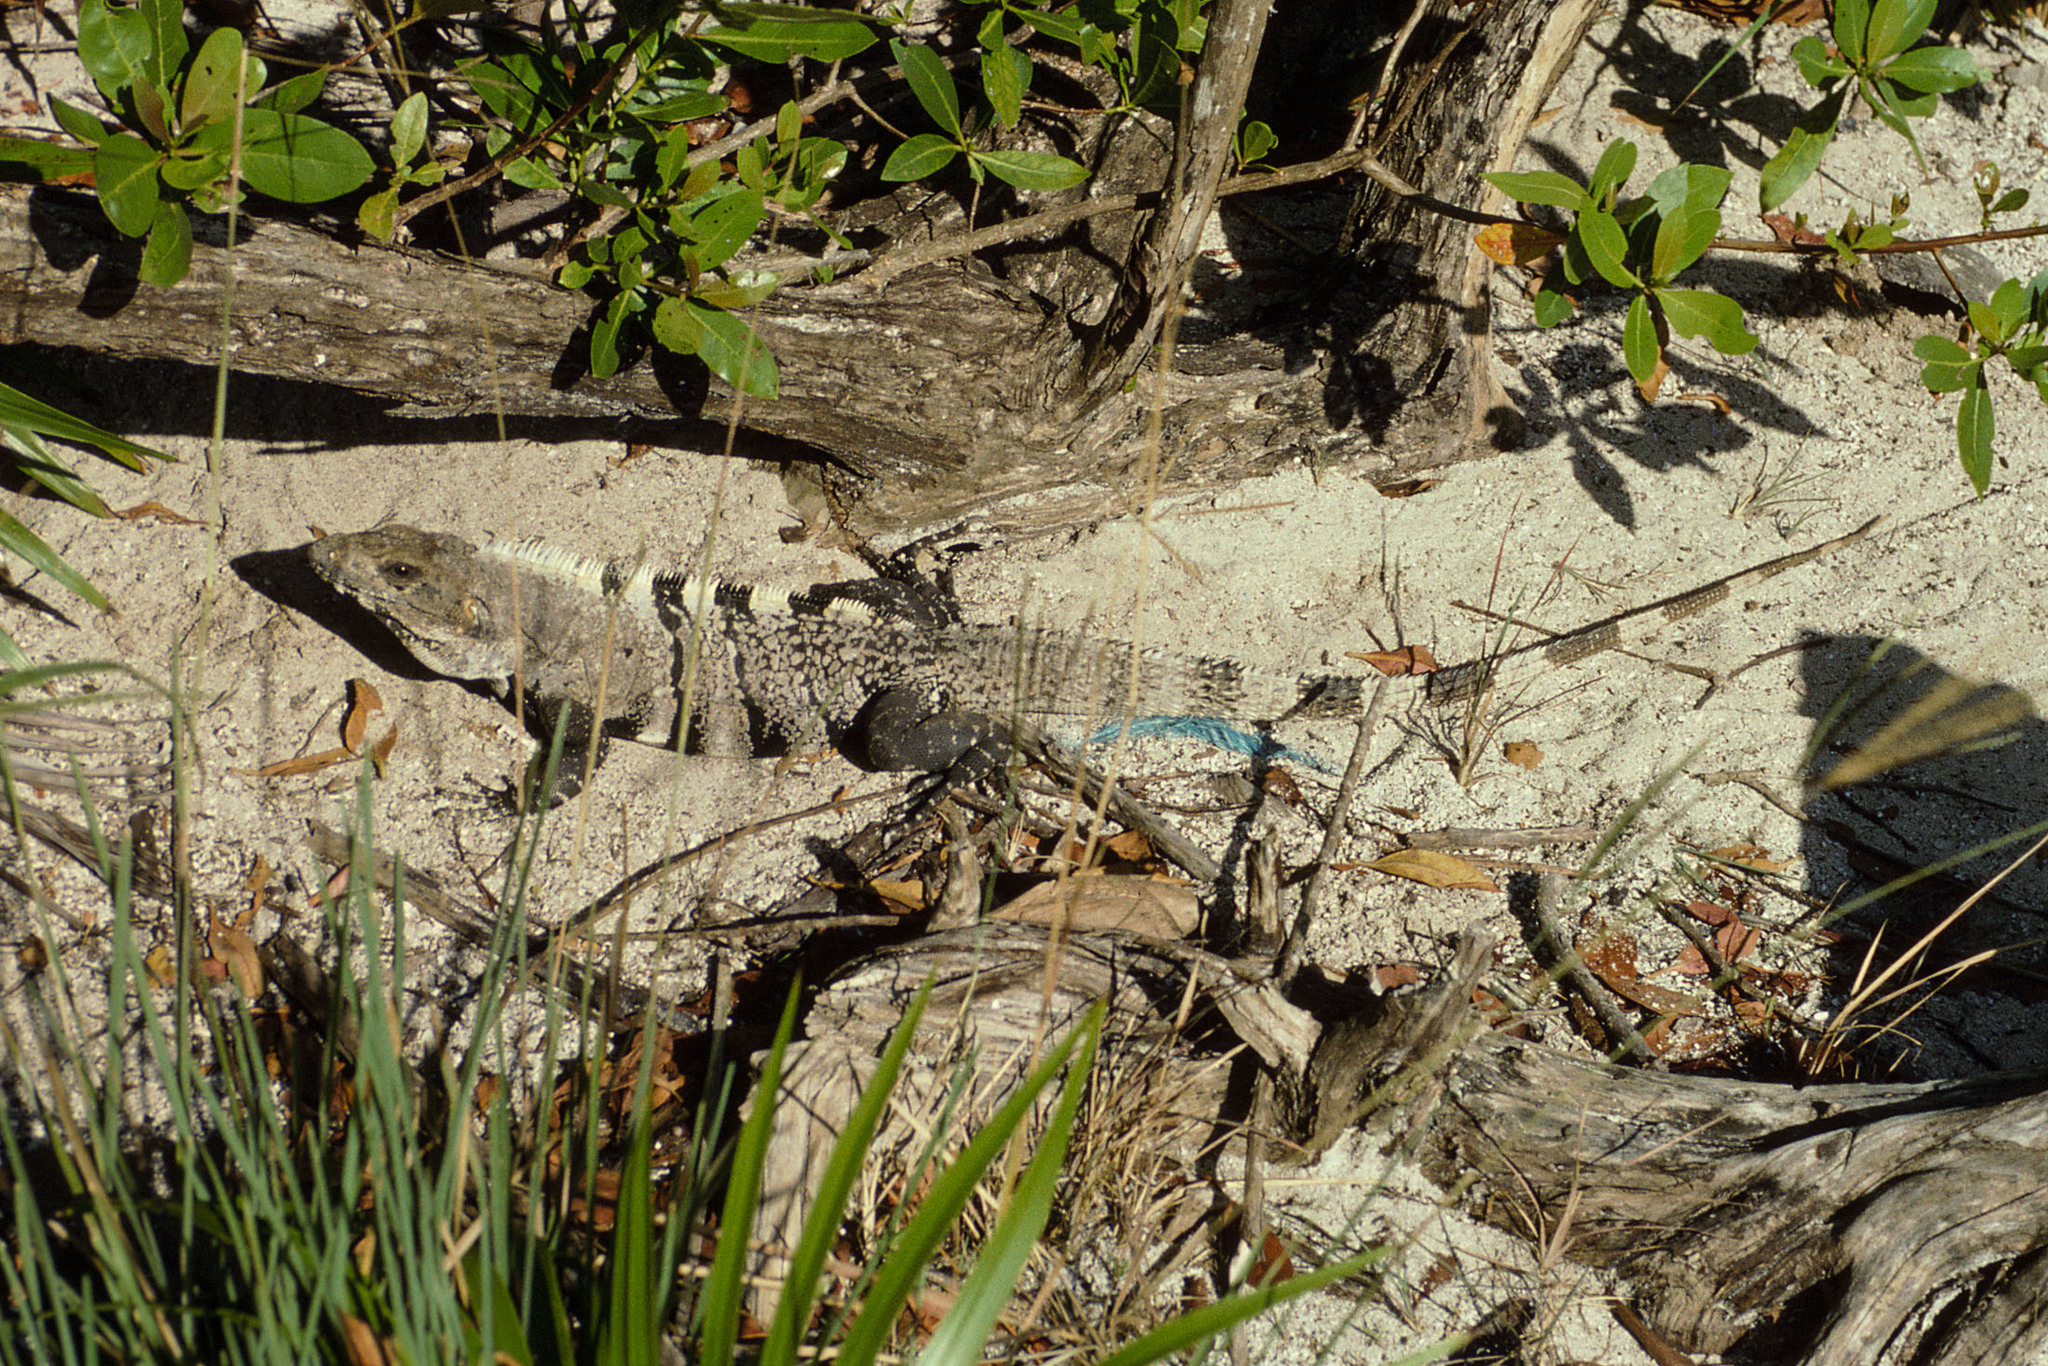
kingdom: Animalia
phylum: Chordata
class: Squamata
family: Iguanidae
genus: Ctenosaura
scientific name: Ctenosaura similis
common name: Black spiny-tailed iguana
